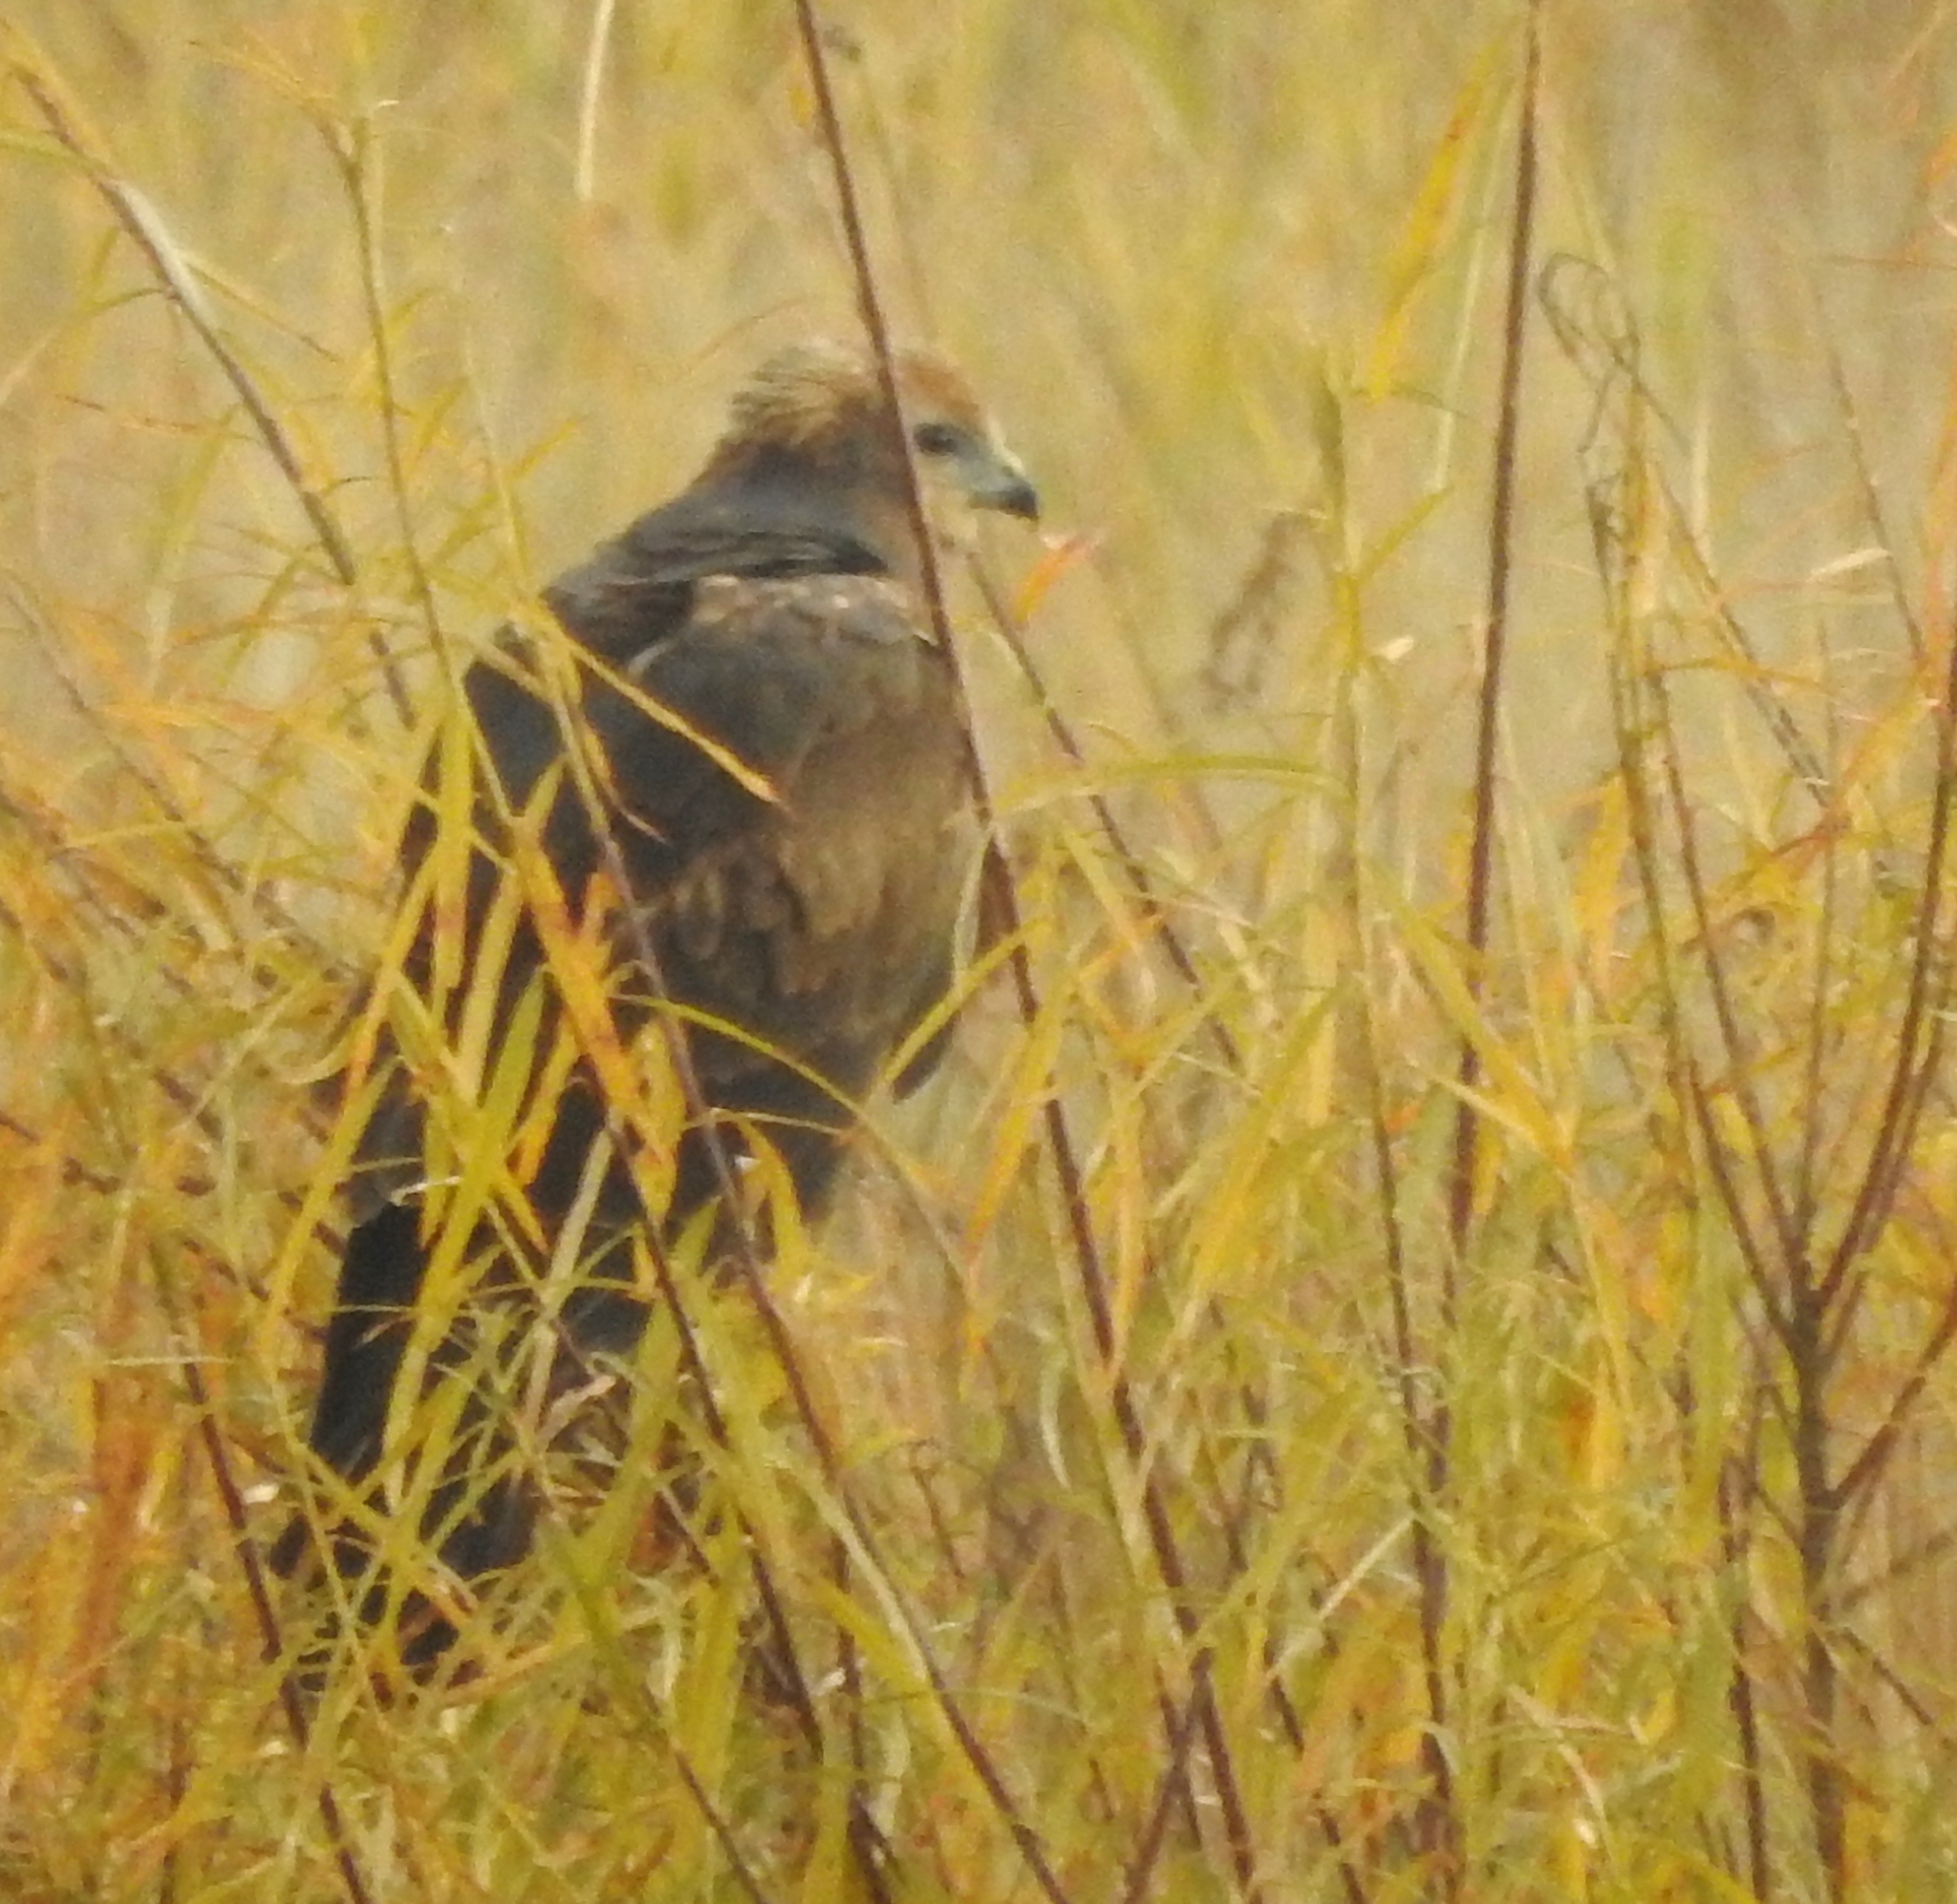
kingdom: Animalia
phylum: Chordata
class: Aves
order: Accipitriformes
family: Accipitridae
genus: Circus
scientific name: Circus spilonotus
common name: Eastern marsh-harrier
